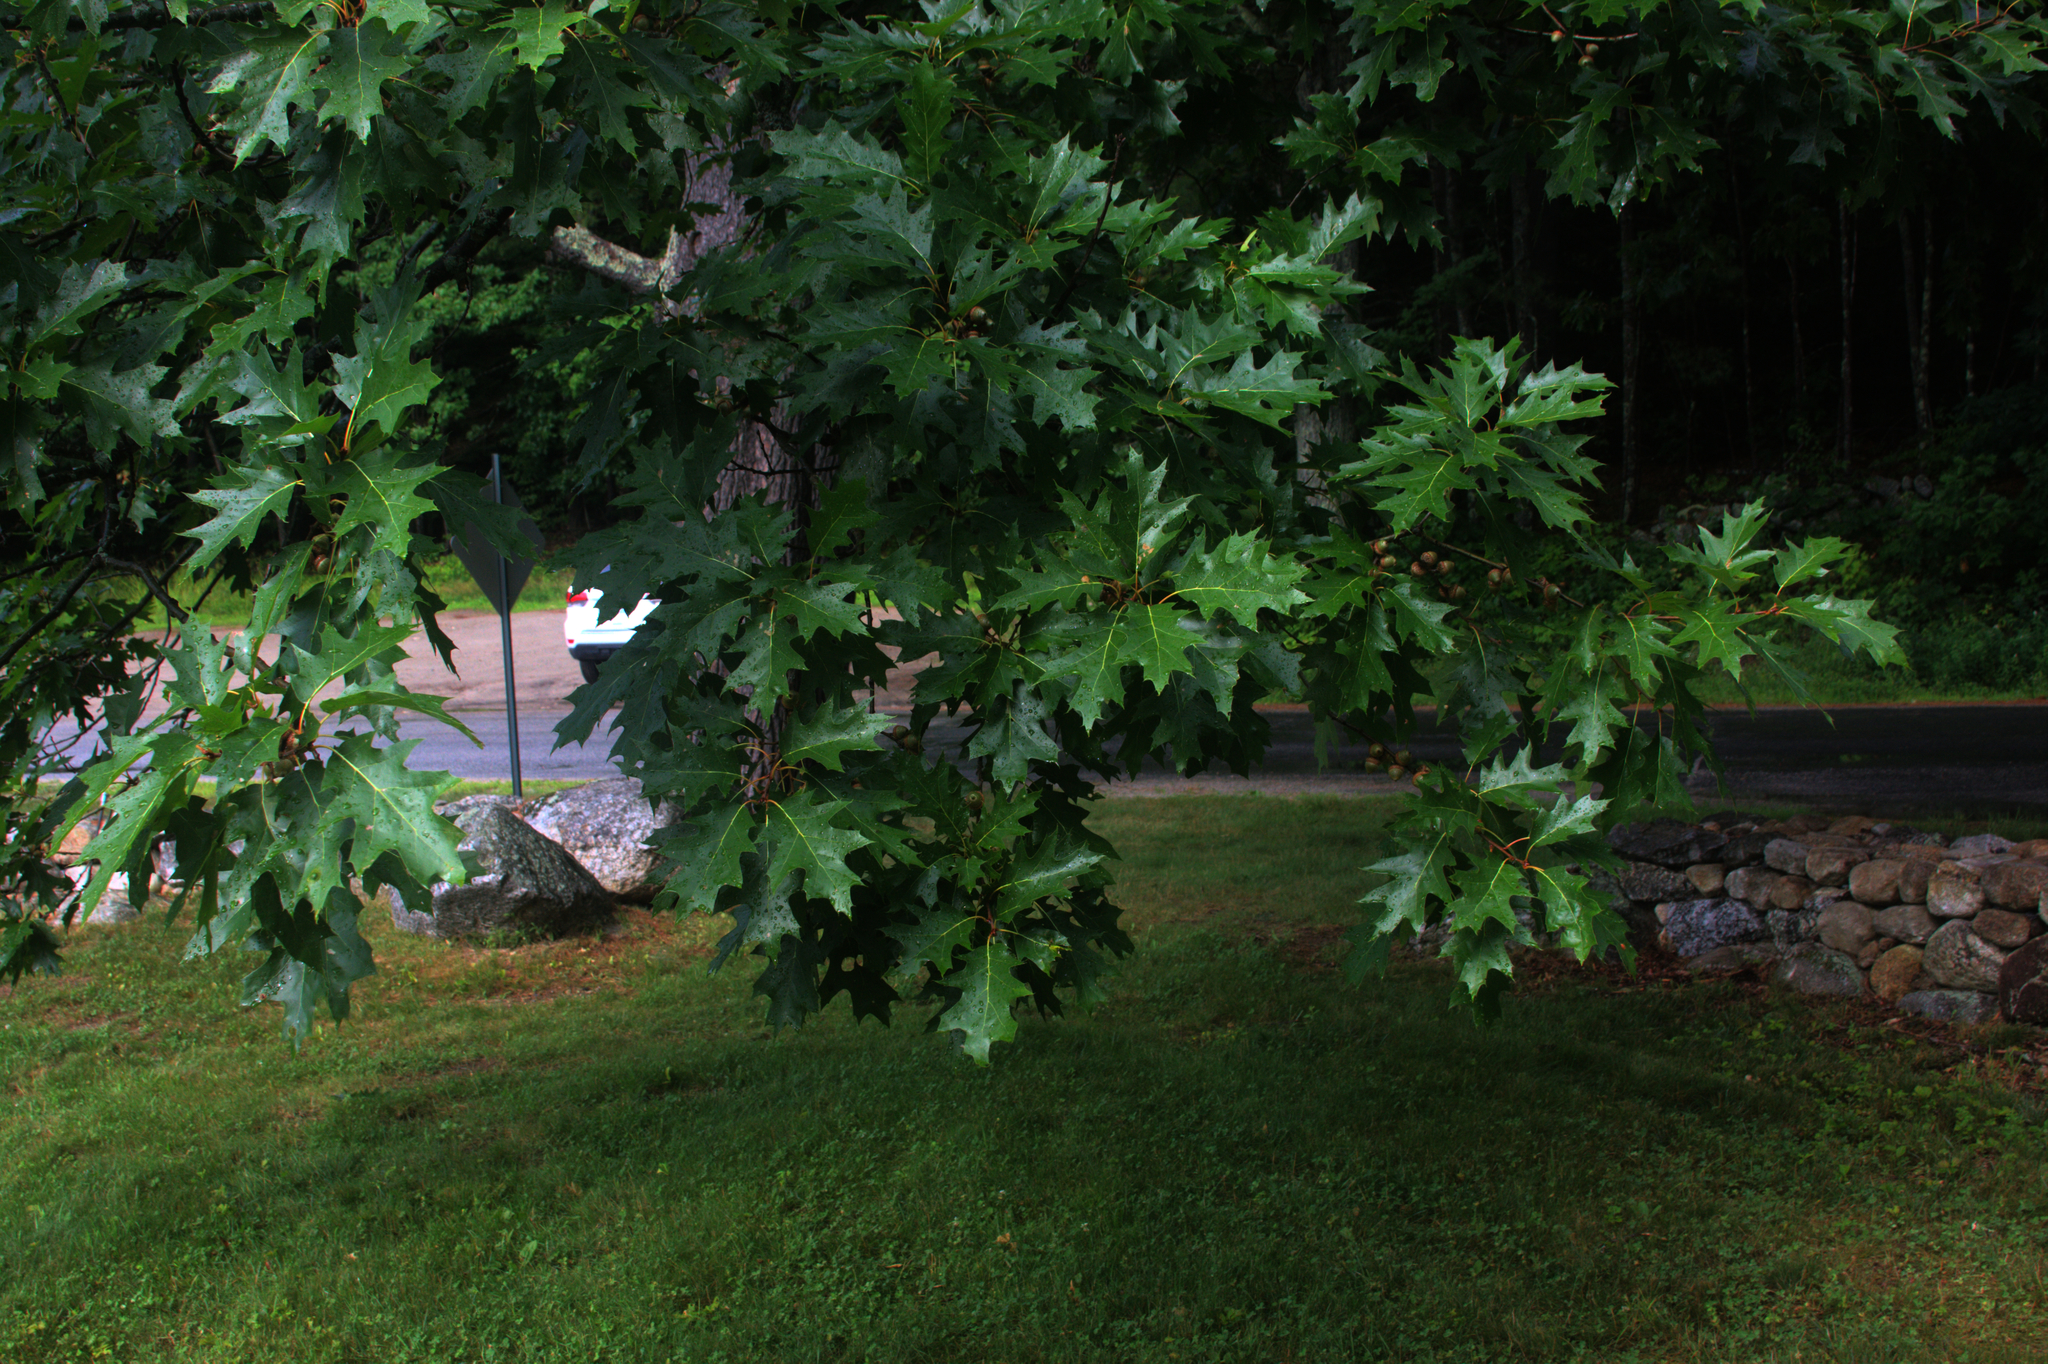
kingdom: Plantae
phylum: Tracheophyta
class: Magnoliopsida
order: Fagales
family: Fagaceae
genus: Quercus
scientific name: Quercus rubra
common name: Red oak
